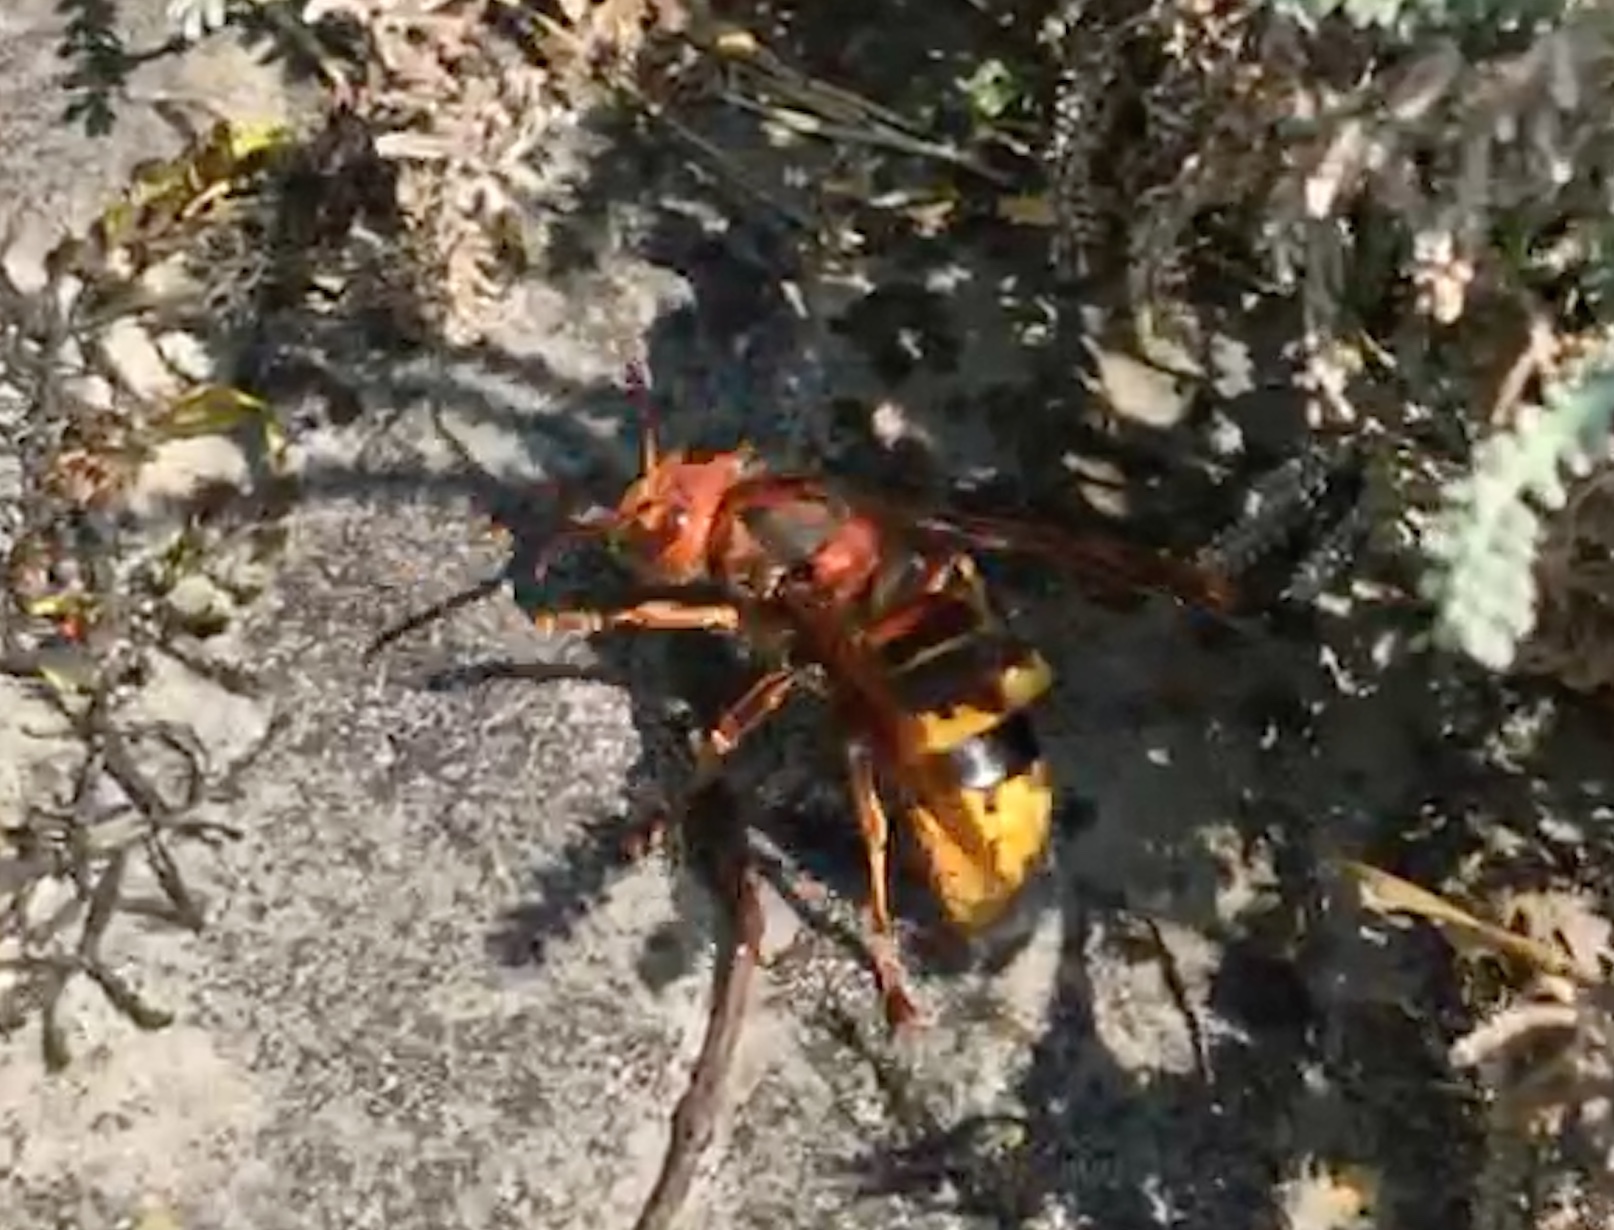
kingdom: Animalia
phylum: Arthropoda
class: Insecta
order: Hymenoptera
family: Vespidae
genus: Vespa
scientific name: Vespa crabro
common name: Hornet
